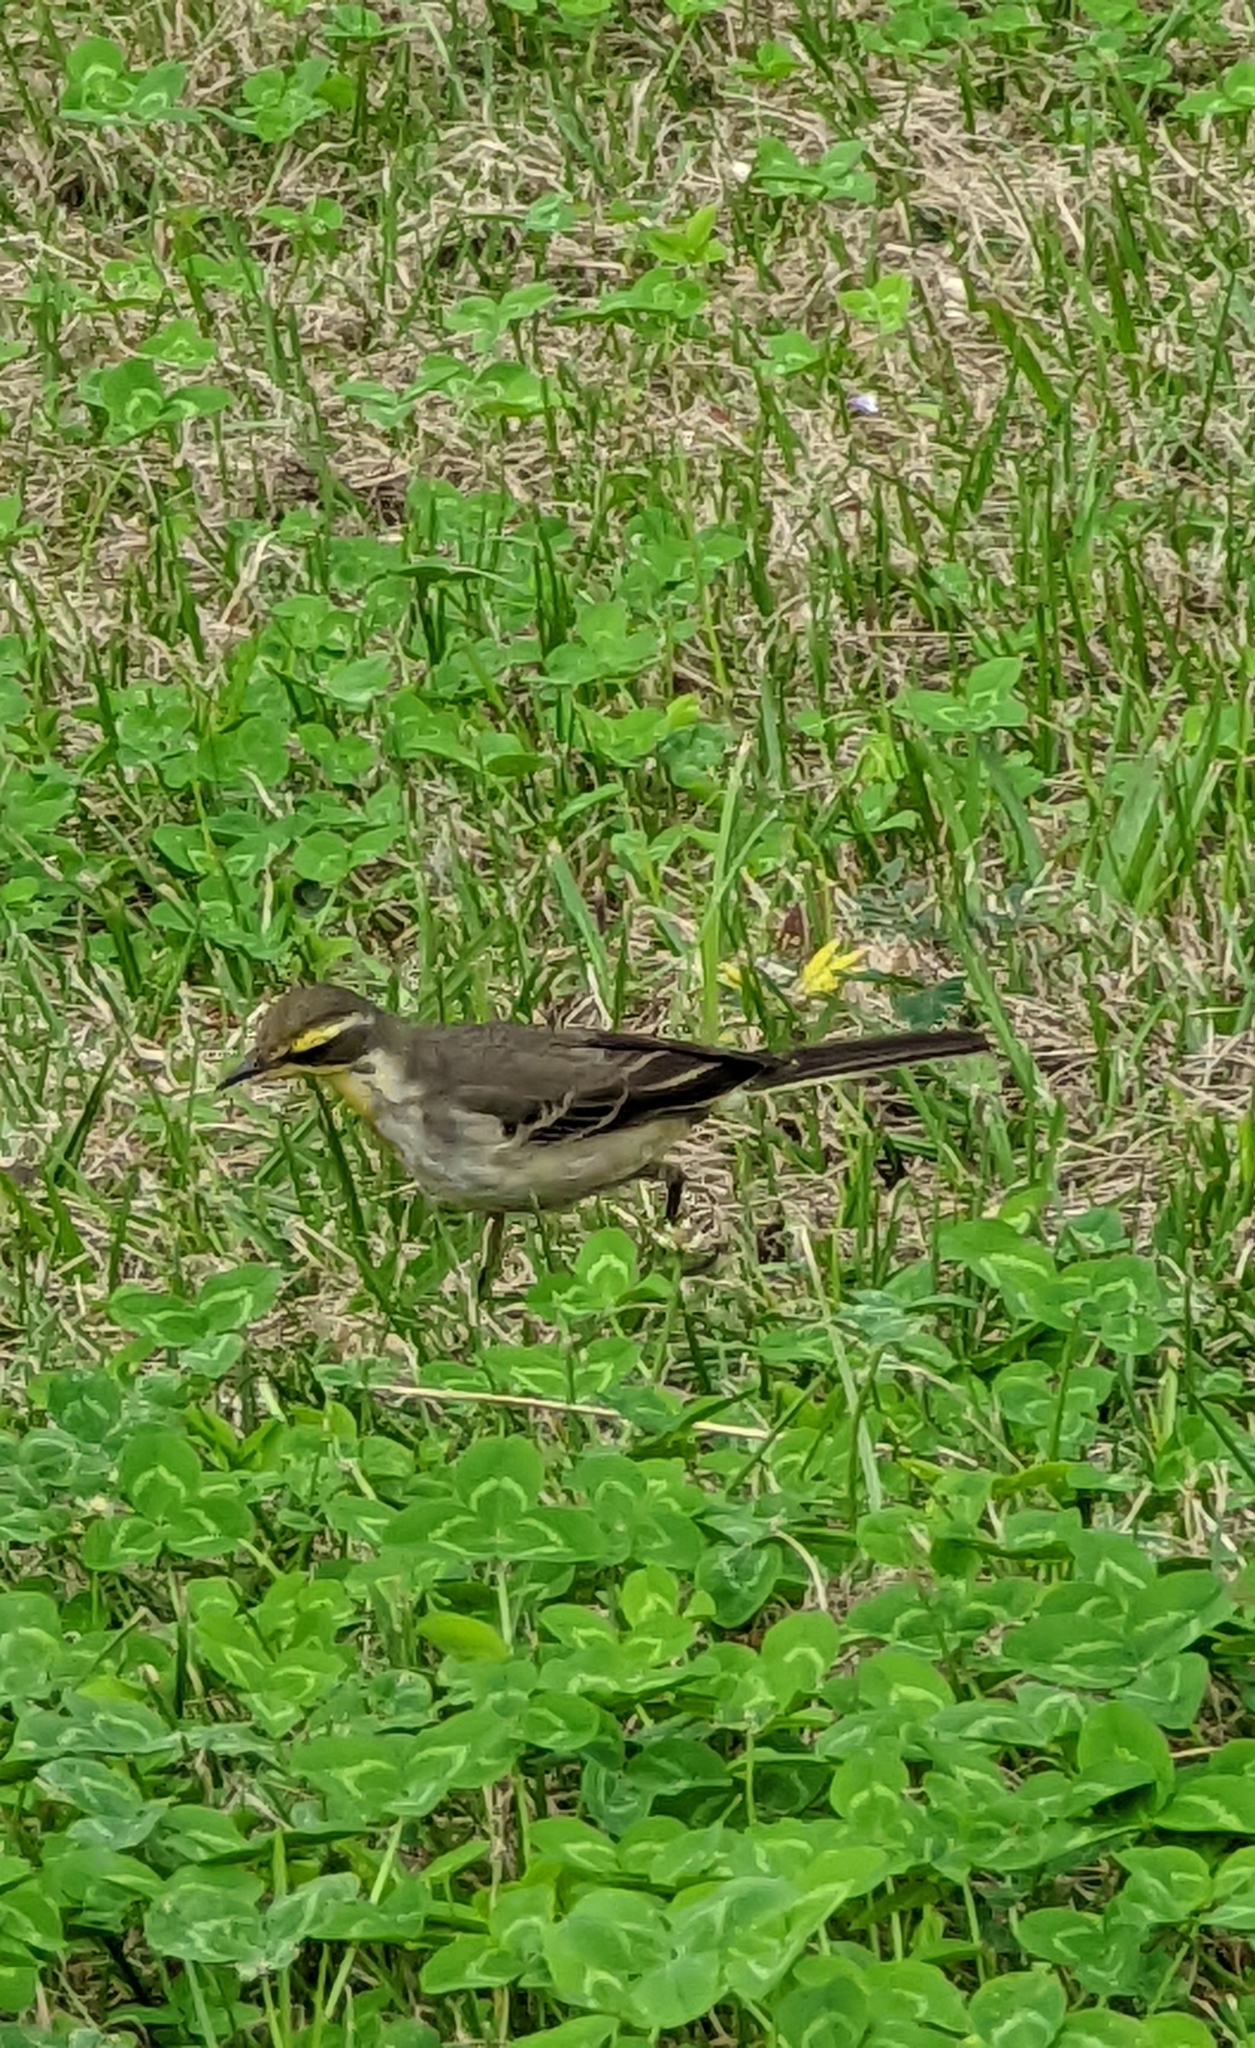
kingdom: Animalia
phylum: Chordata
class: Aves
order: Passeriformes
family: Motacillidae
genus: Motacilla
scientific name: Motacilla tschutschensis
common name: Eastern yellow wagtail
